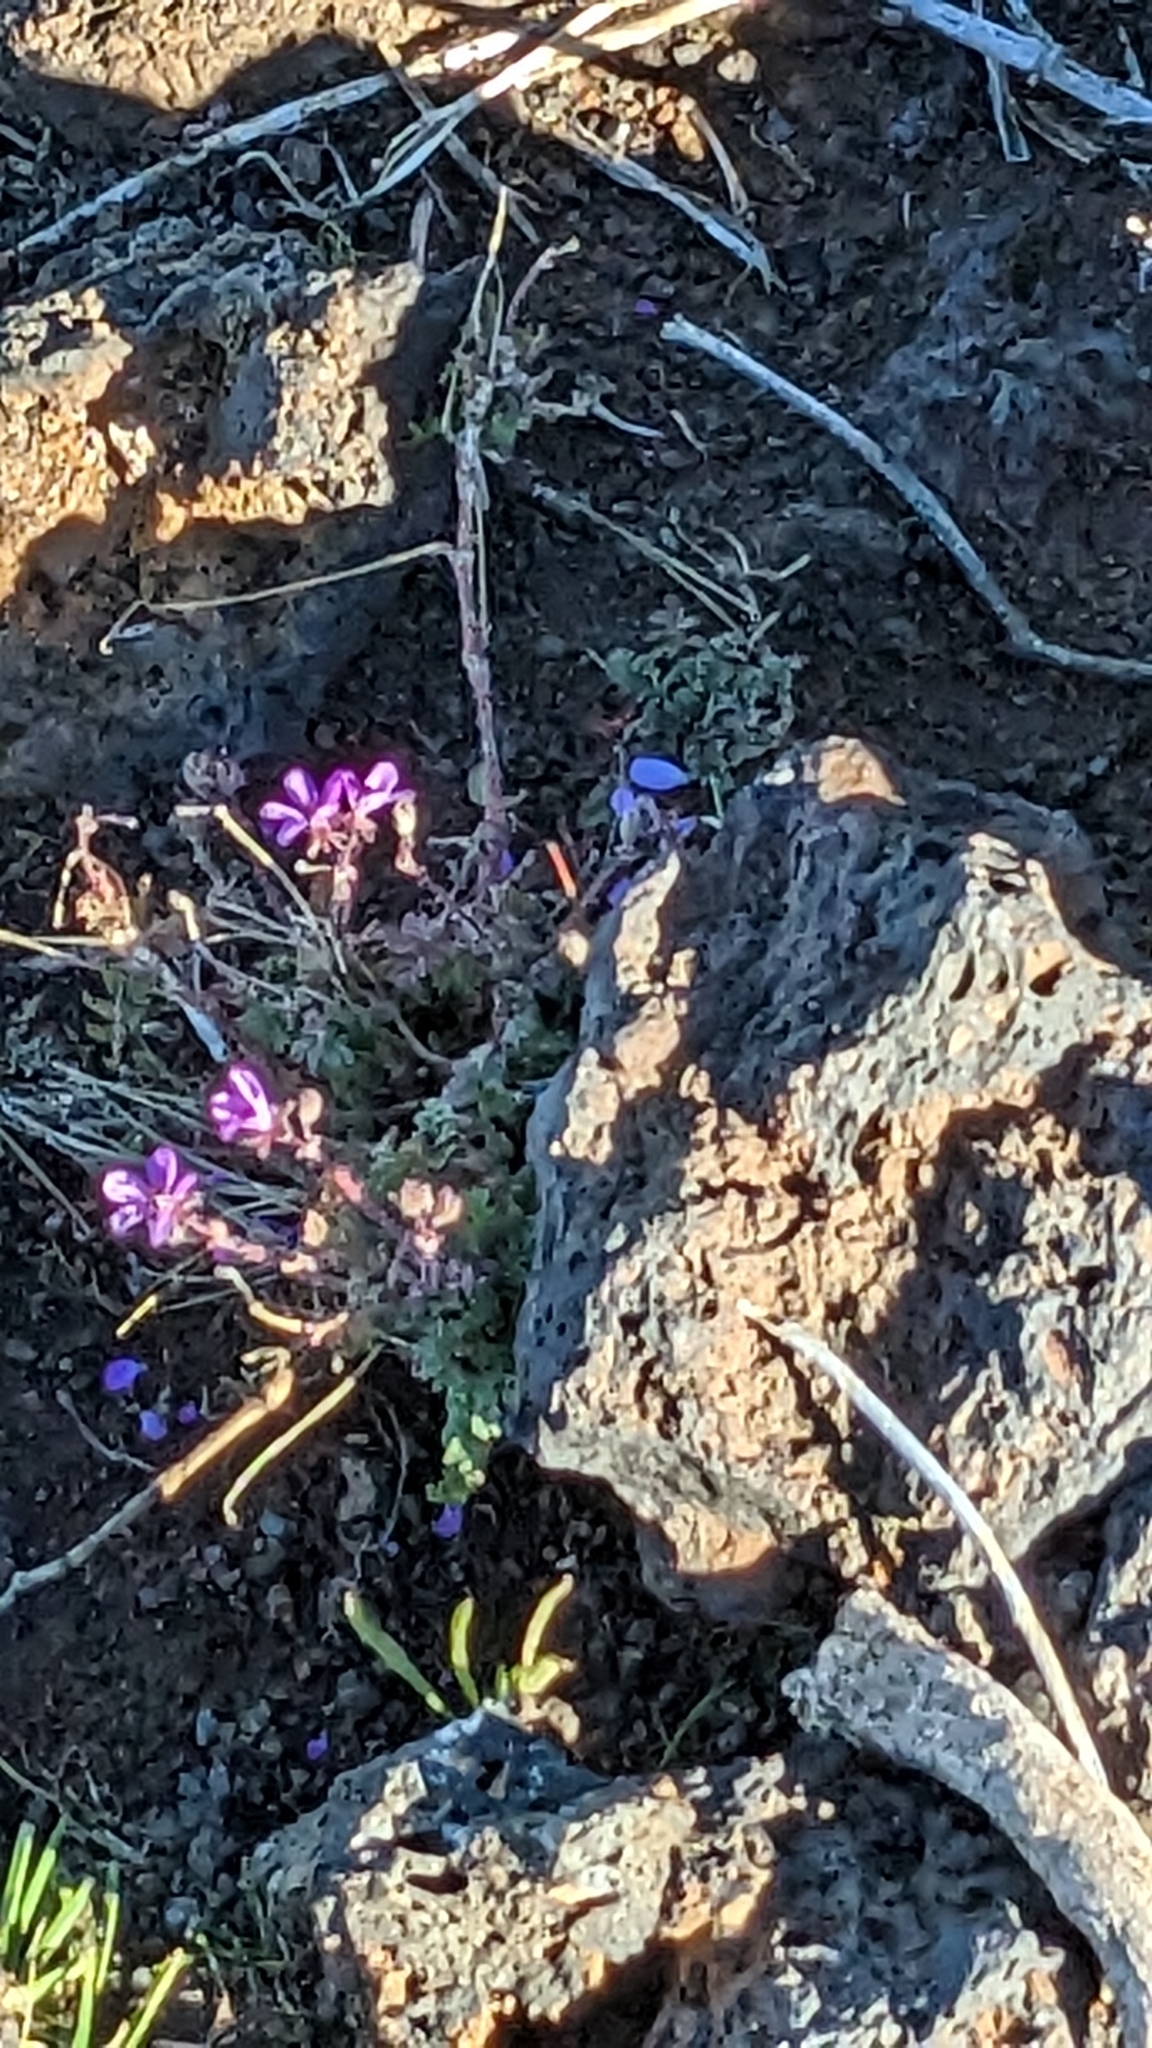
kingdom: Plantae
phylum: Tracheophyta
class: Magnoliopsida
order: Geraniales
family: Geraniaceae
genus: Erodium
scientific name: Erodium cicutarium
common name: Common stork's-bill
